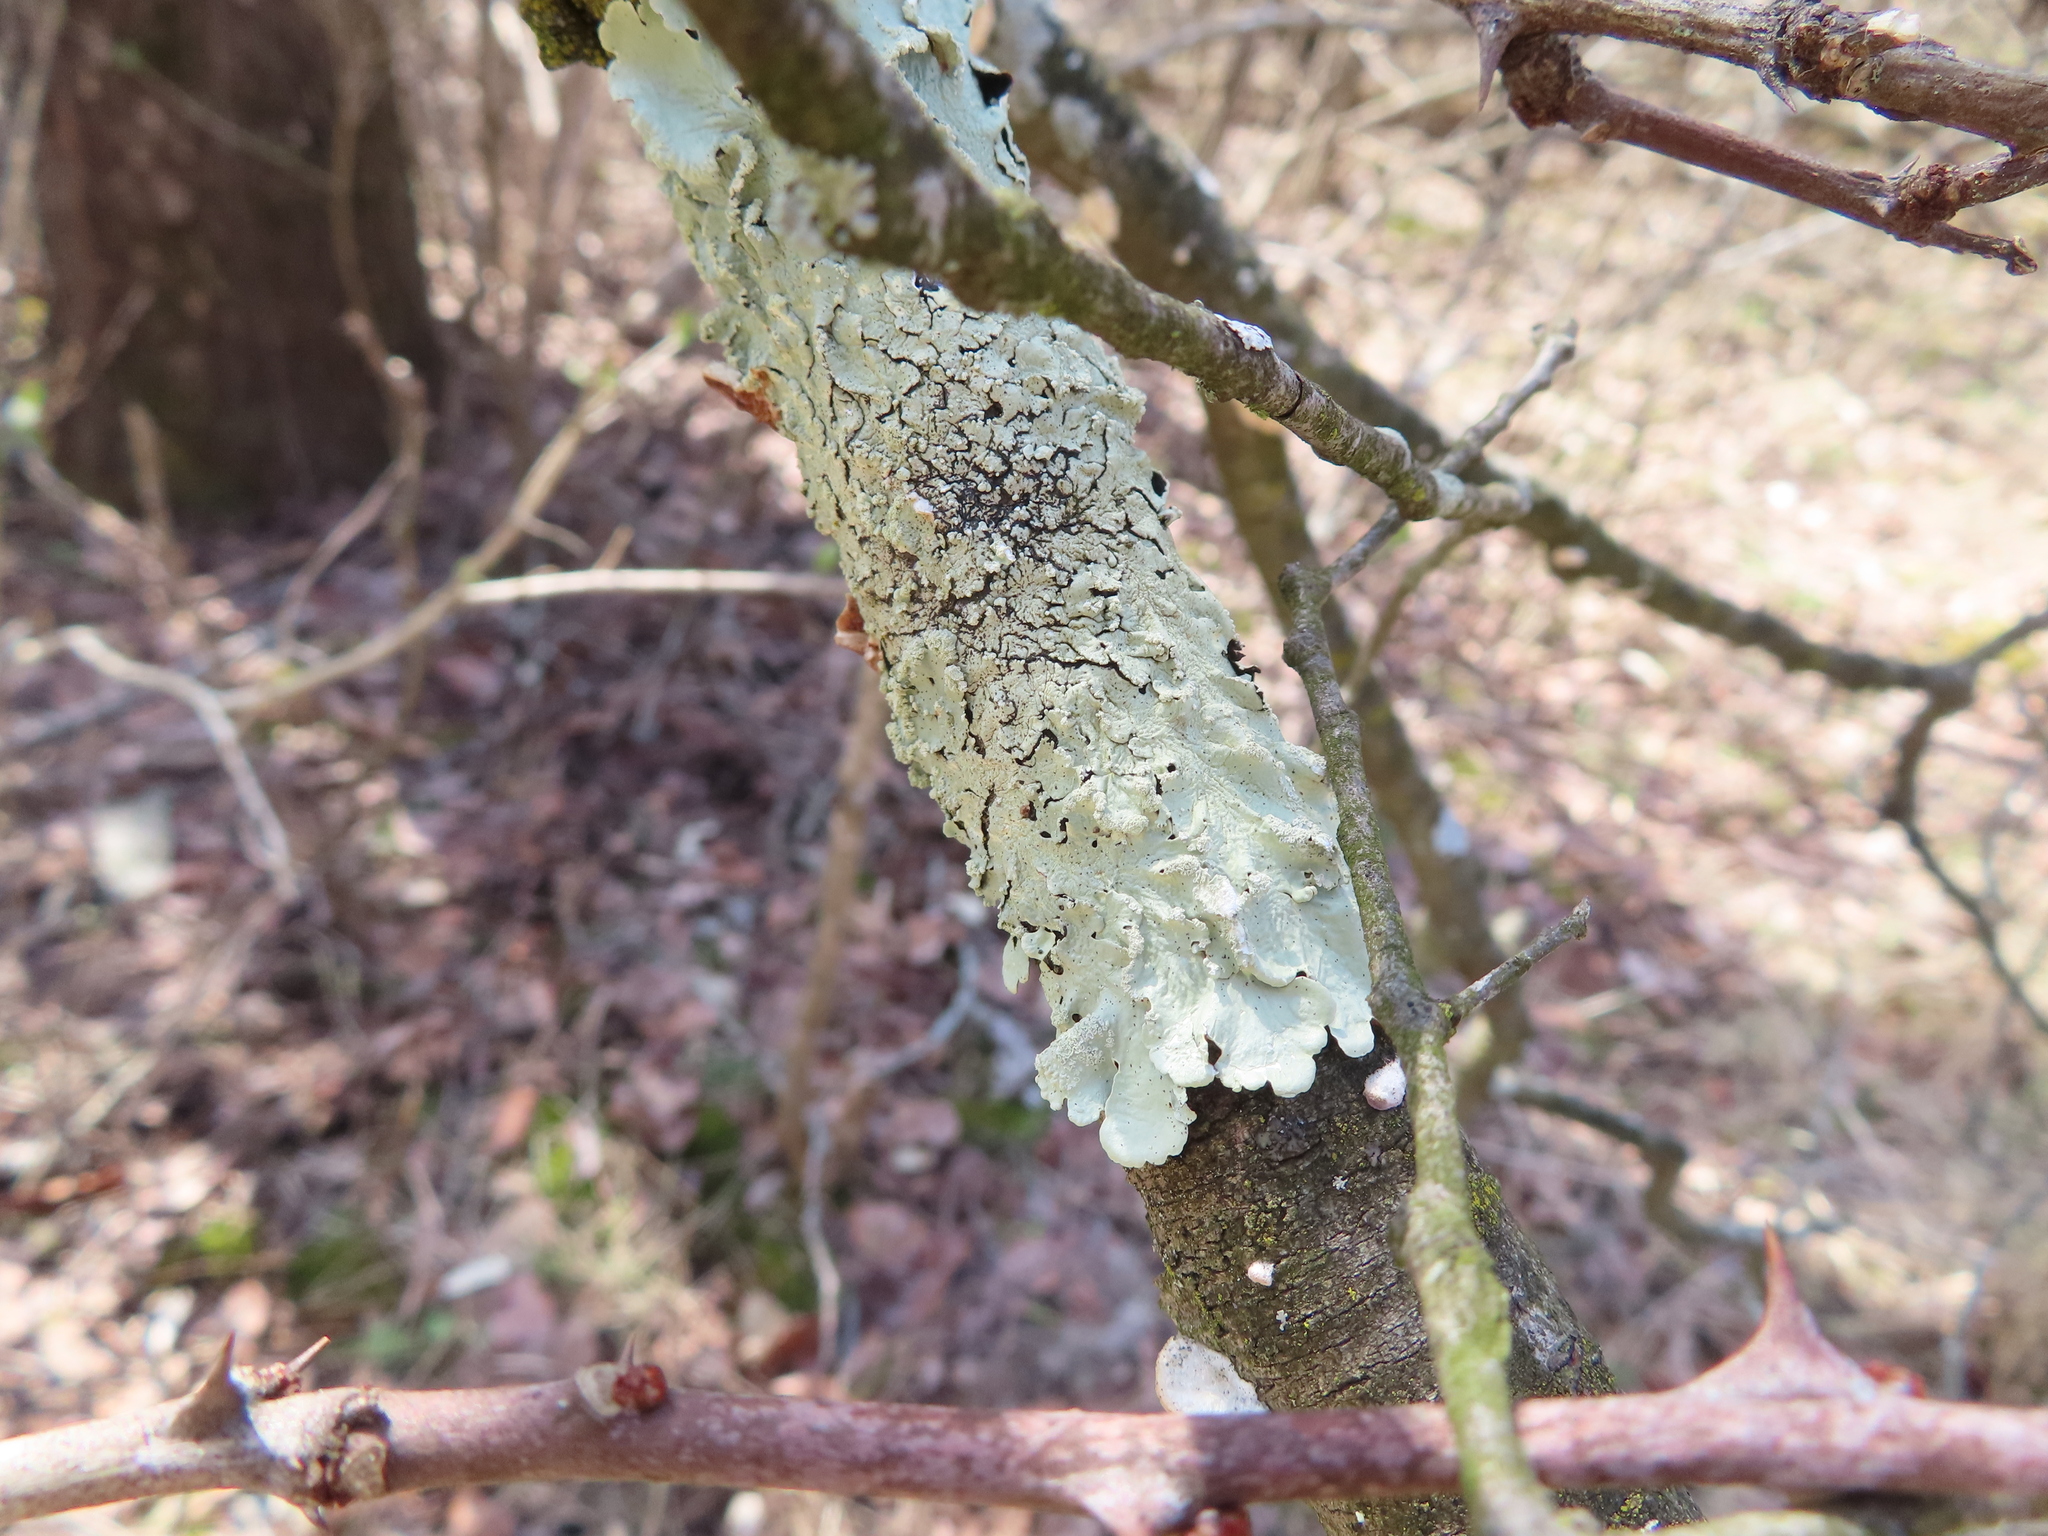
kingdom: Fungi
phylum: Ascomycota
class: Lecanoromycetes
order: Lecanorales
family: Parmeliaceae
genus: Flavoparmelia
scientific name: Flavoparmelia caperata
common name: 40-mile per hour lichen
